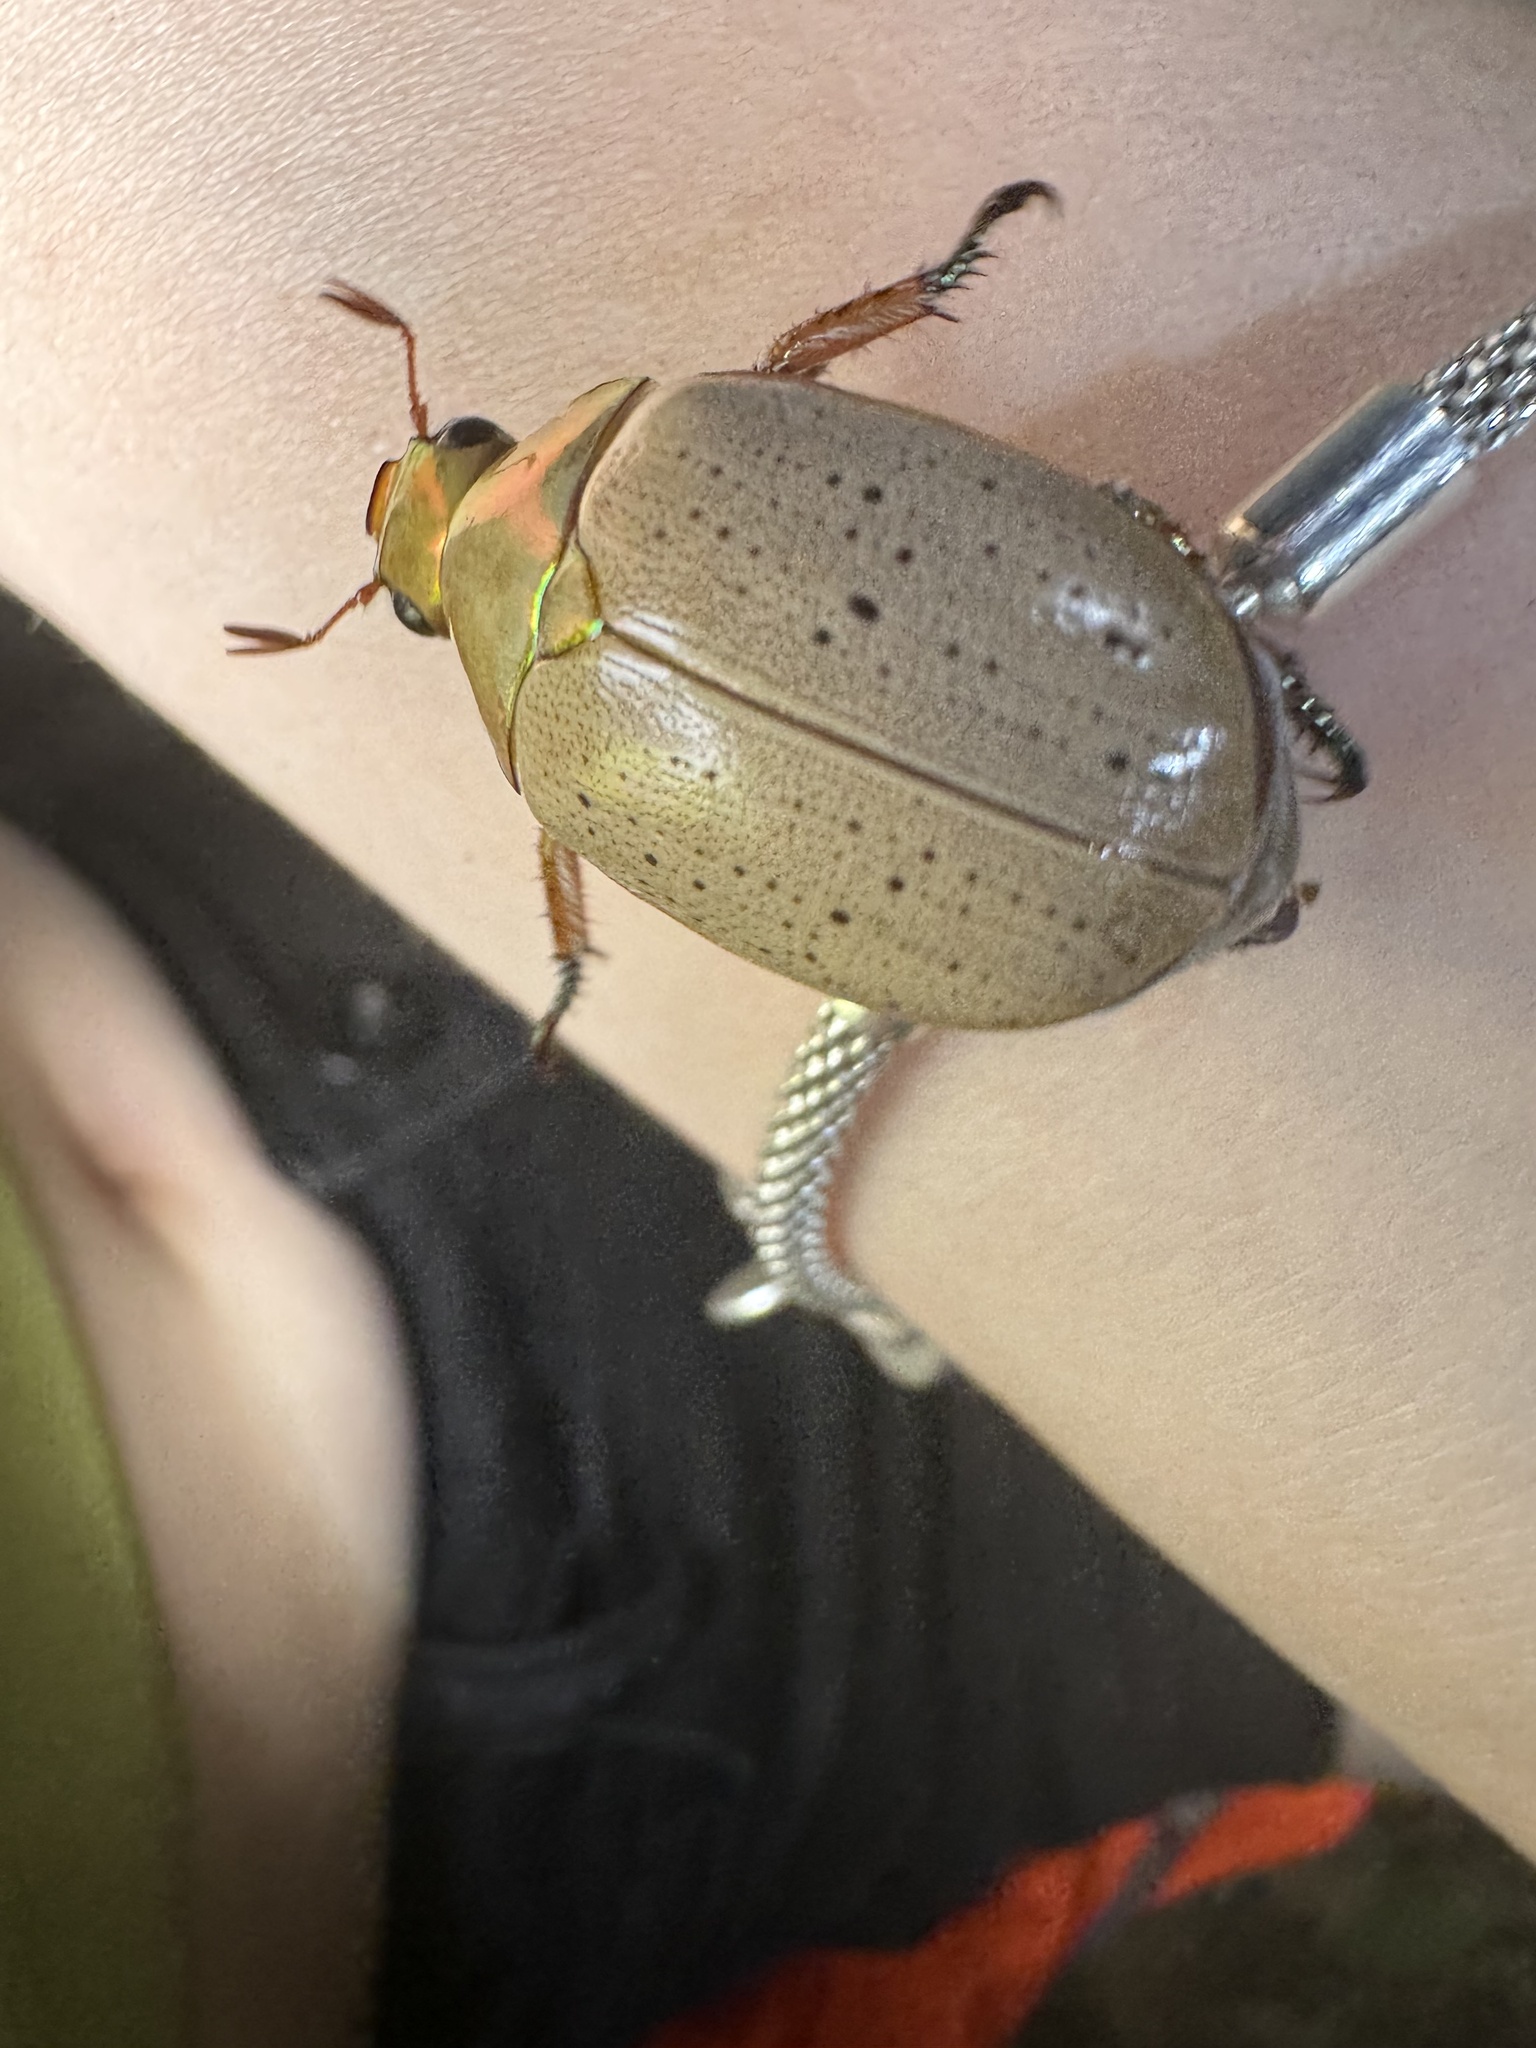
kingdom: Animalia
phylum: Arthropoda
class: Insecta
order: Coleoptera
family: Scarabaeidae
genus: Anoplognathus
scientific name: Anoplognathus porosus
